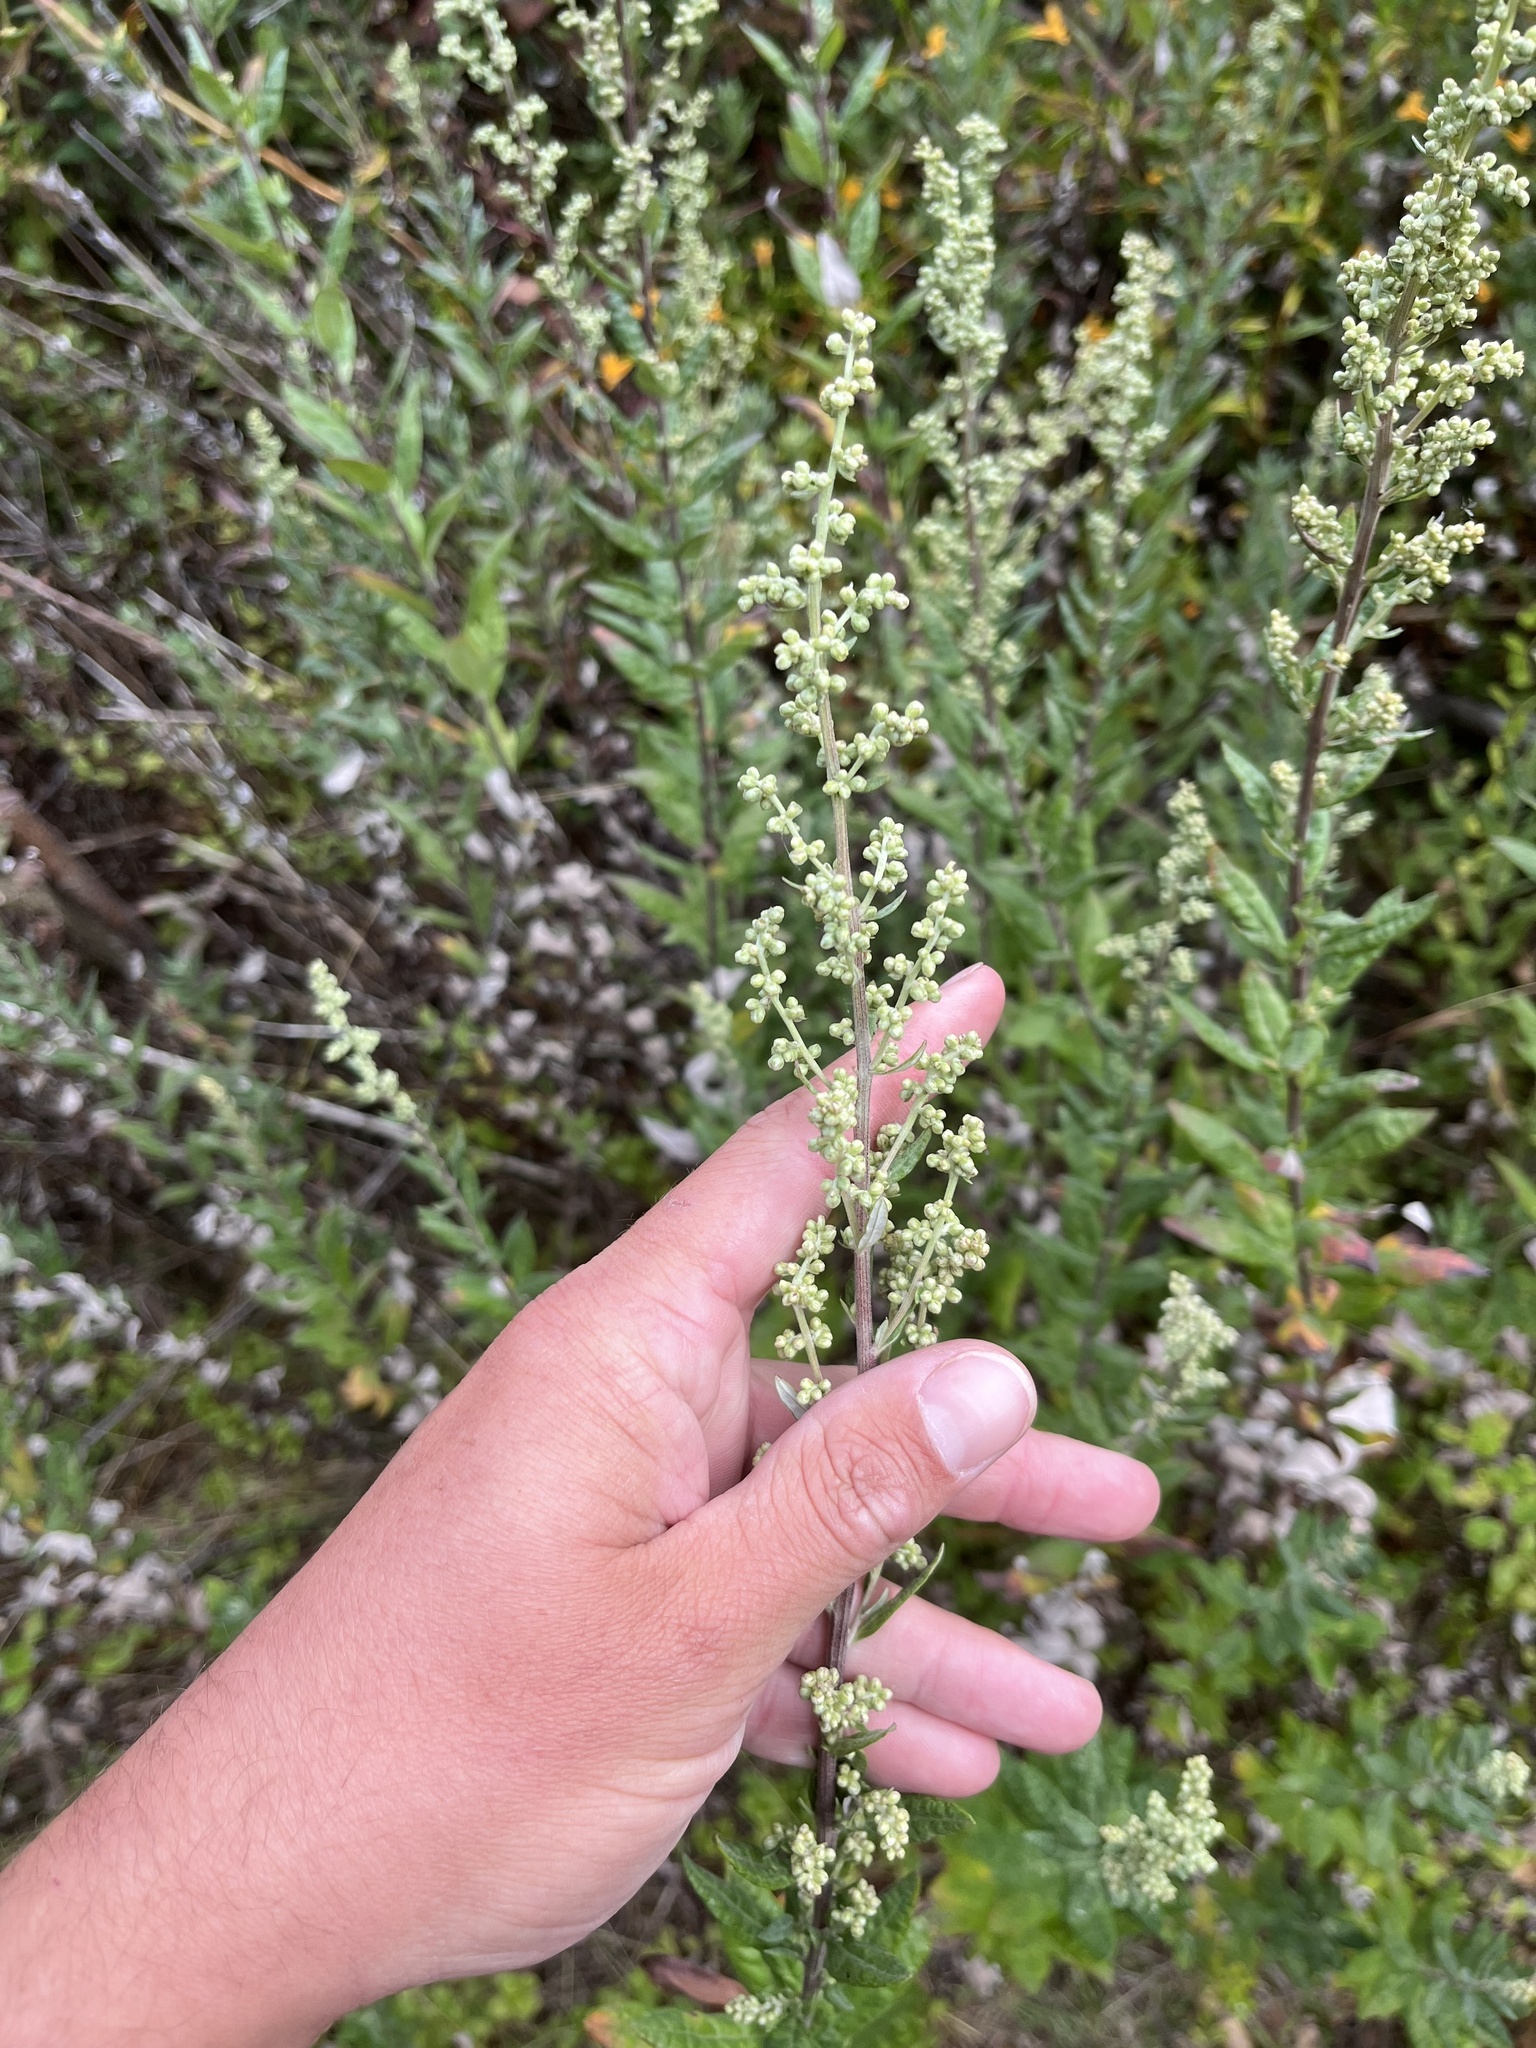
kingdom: Plantae
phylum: Tracheophyta
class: Magnoliopsida
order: Asterales
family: Asteraceae
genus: Artemisia
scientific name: Artemisia douglasiana
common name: Northwest mugwort
